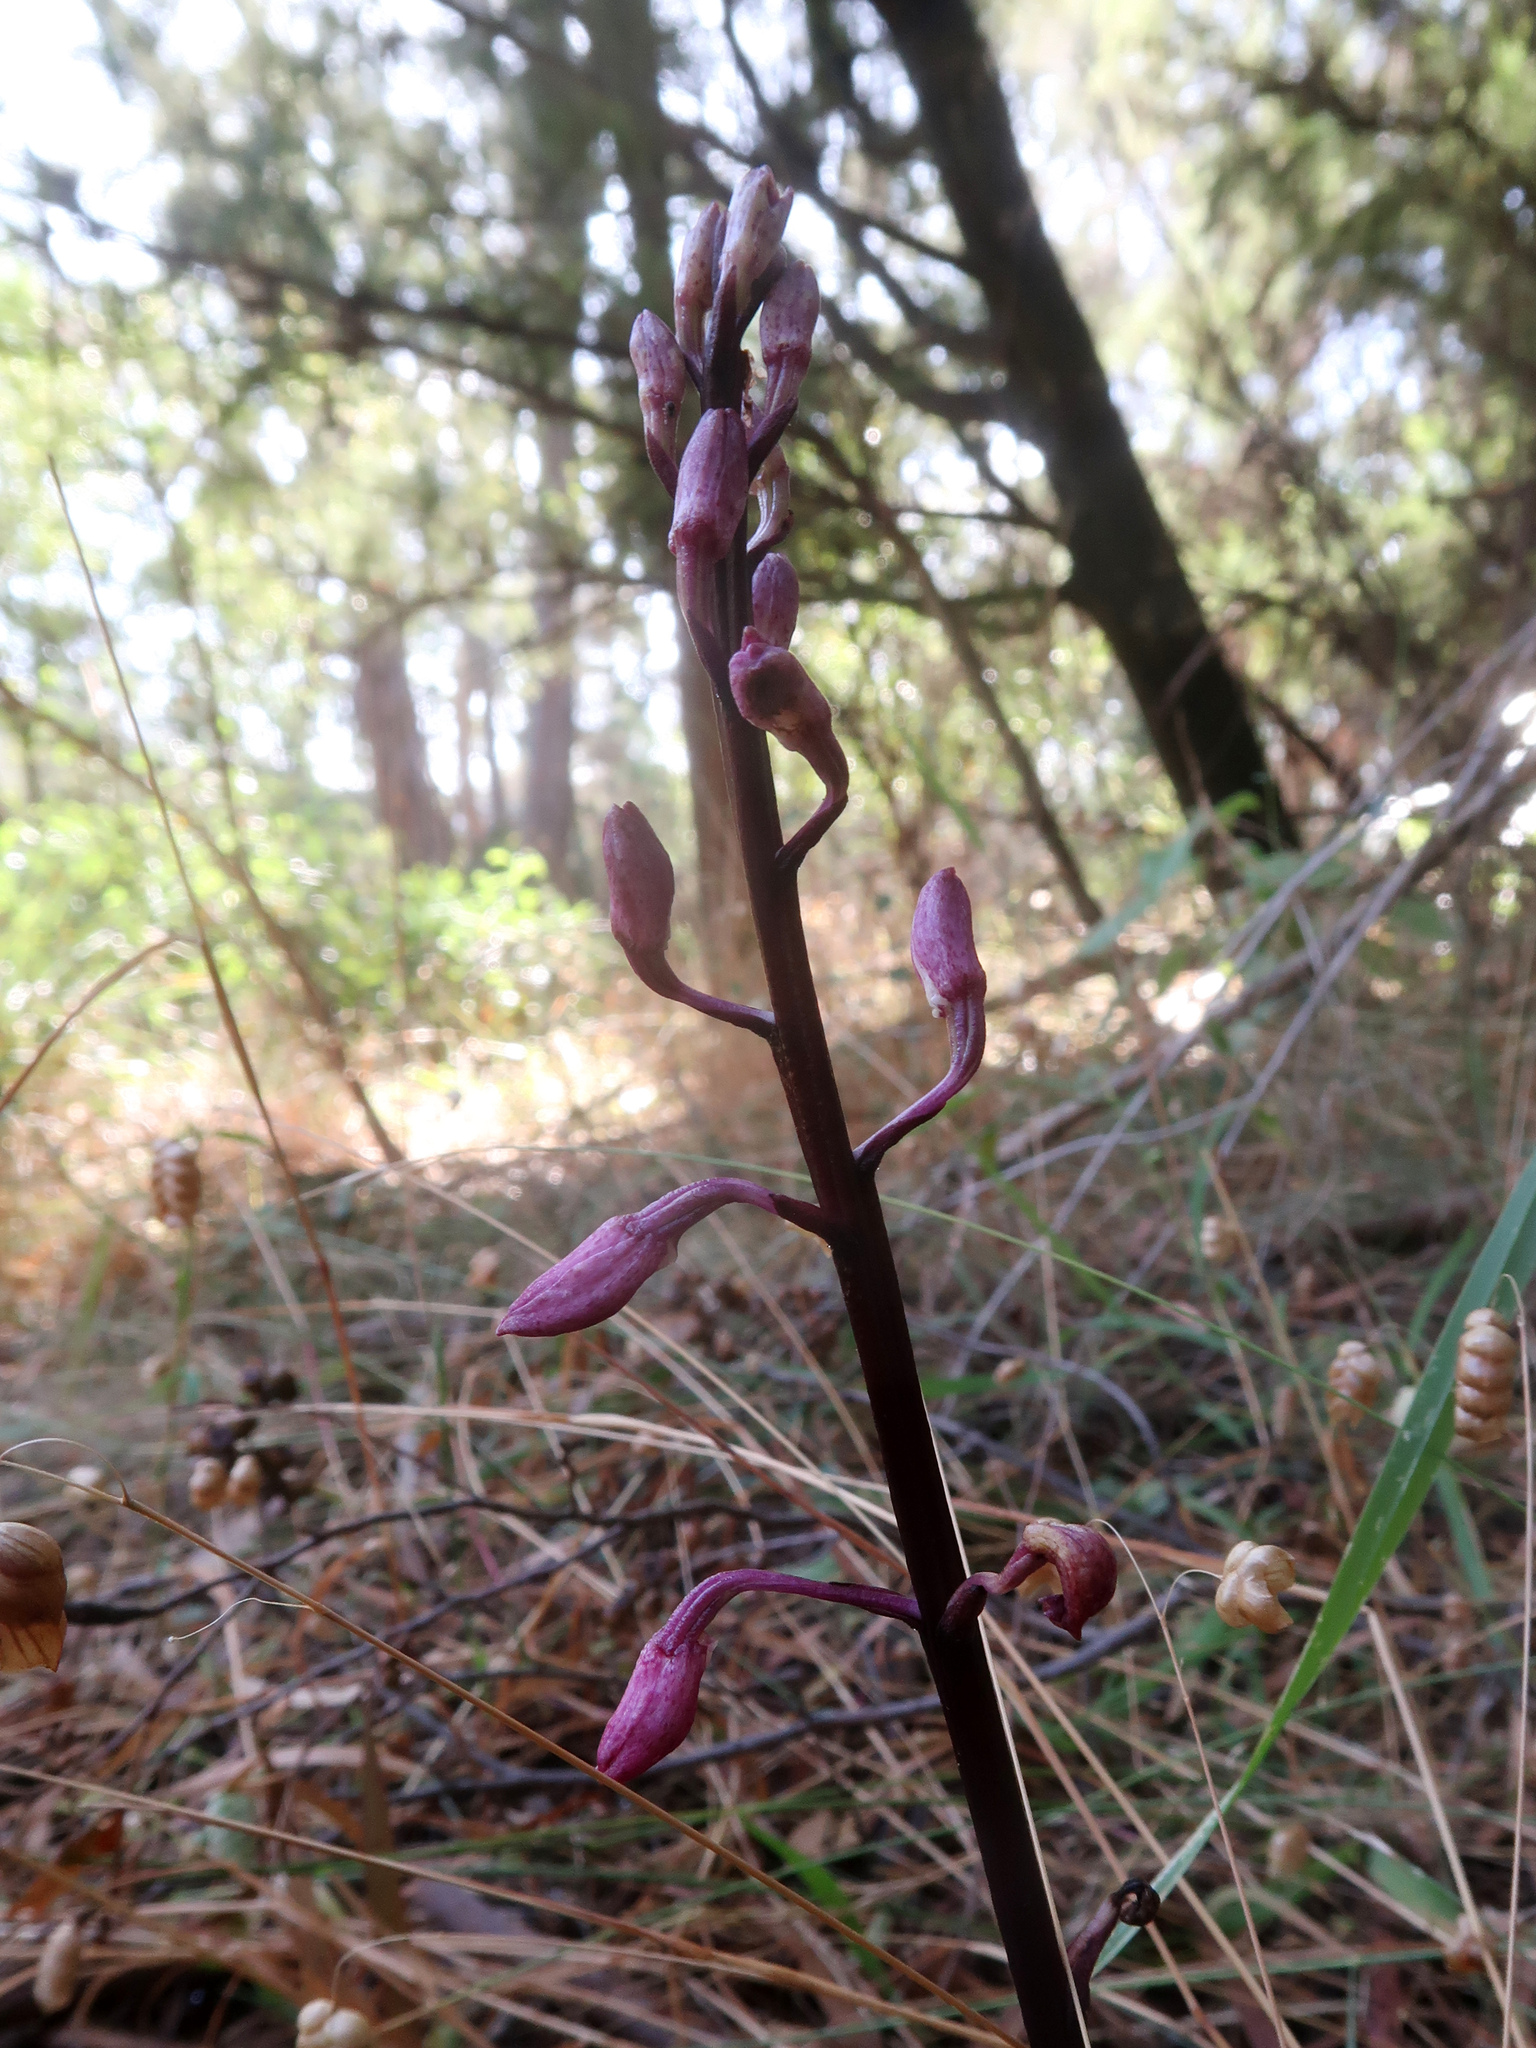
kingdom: Plantae
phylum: Tracheophyta
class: Liliopsida
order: Asparagales
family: Orchidaceae
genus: Dipodium
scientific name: Dipodium roseum
